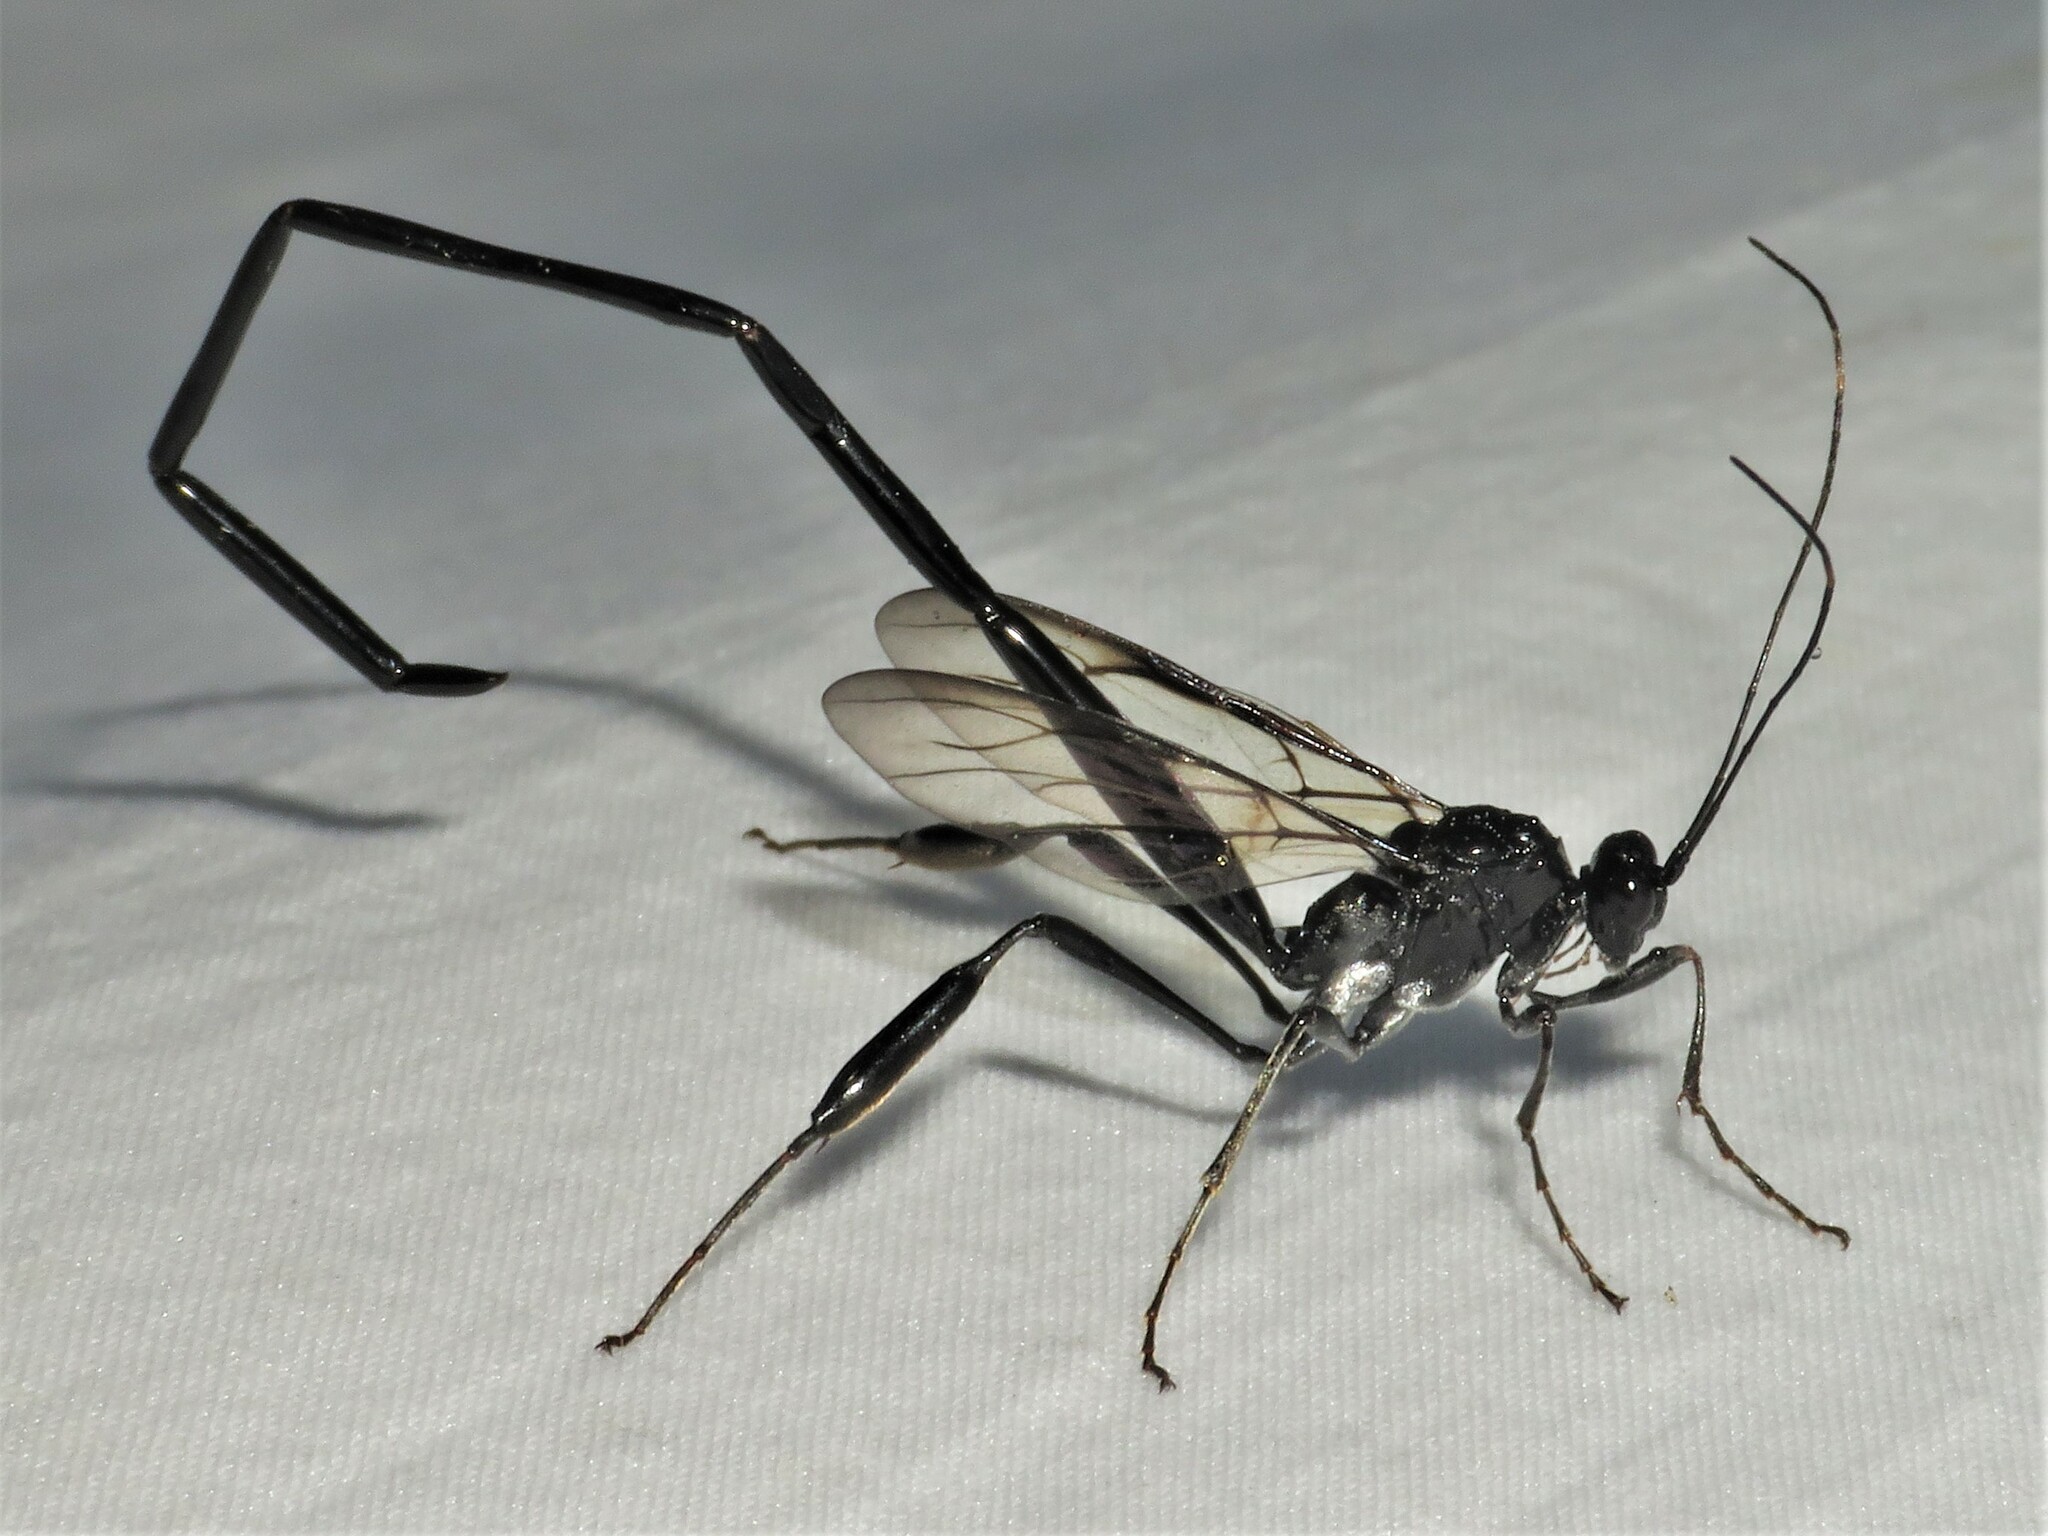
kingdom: Animalia
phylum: Arthropoda
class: Insecta
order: Hymenoptera
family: Pelecinidae
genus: Pelecinus
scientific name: Pelecinus polyturator
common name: American pelecinid wasp
